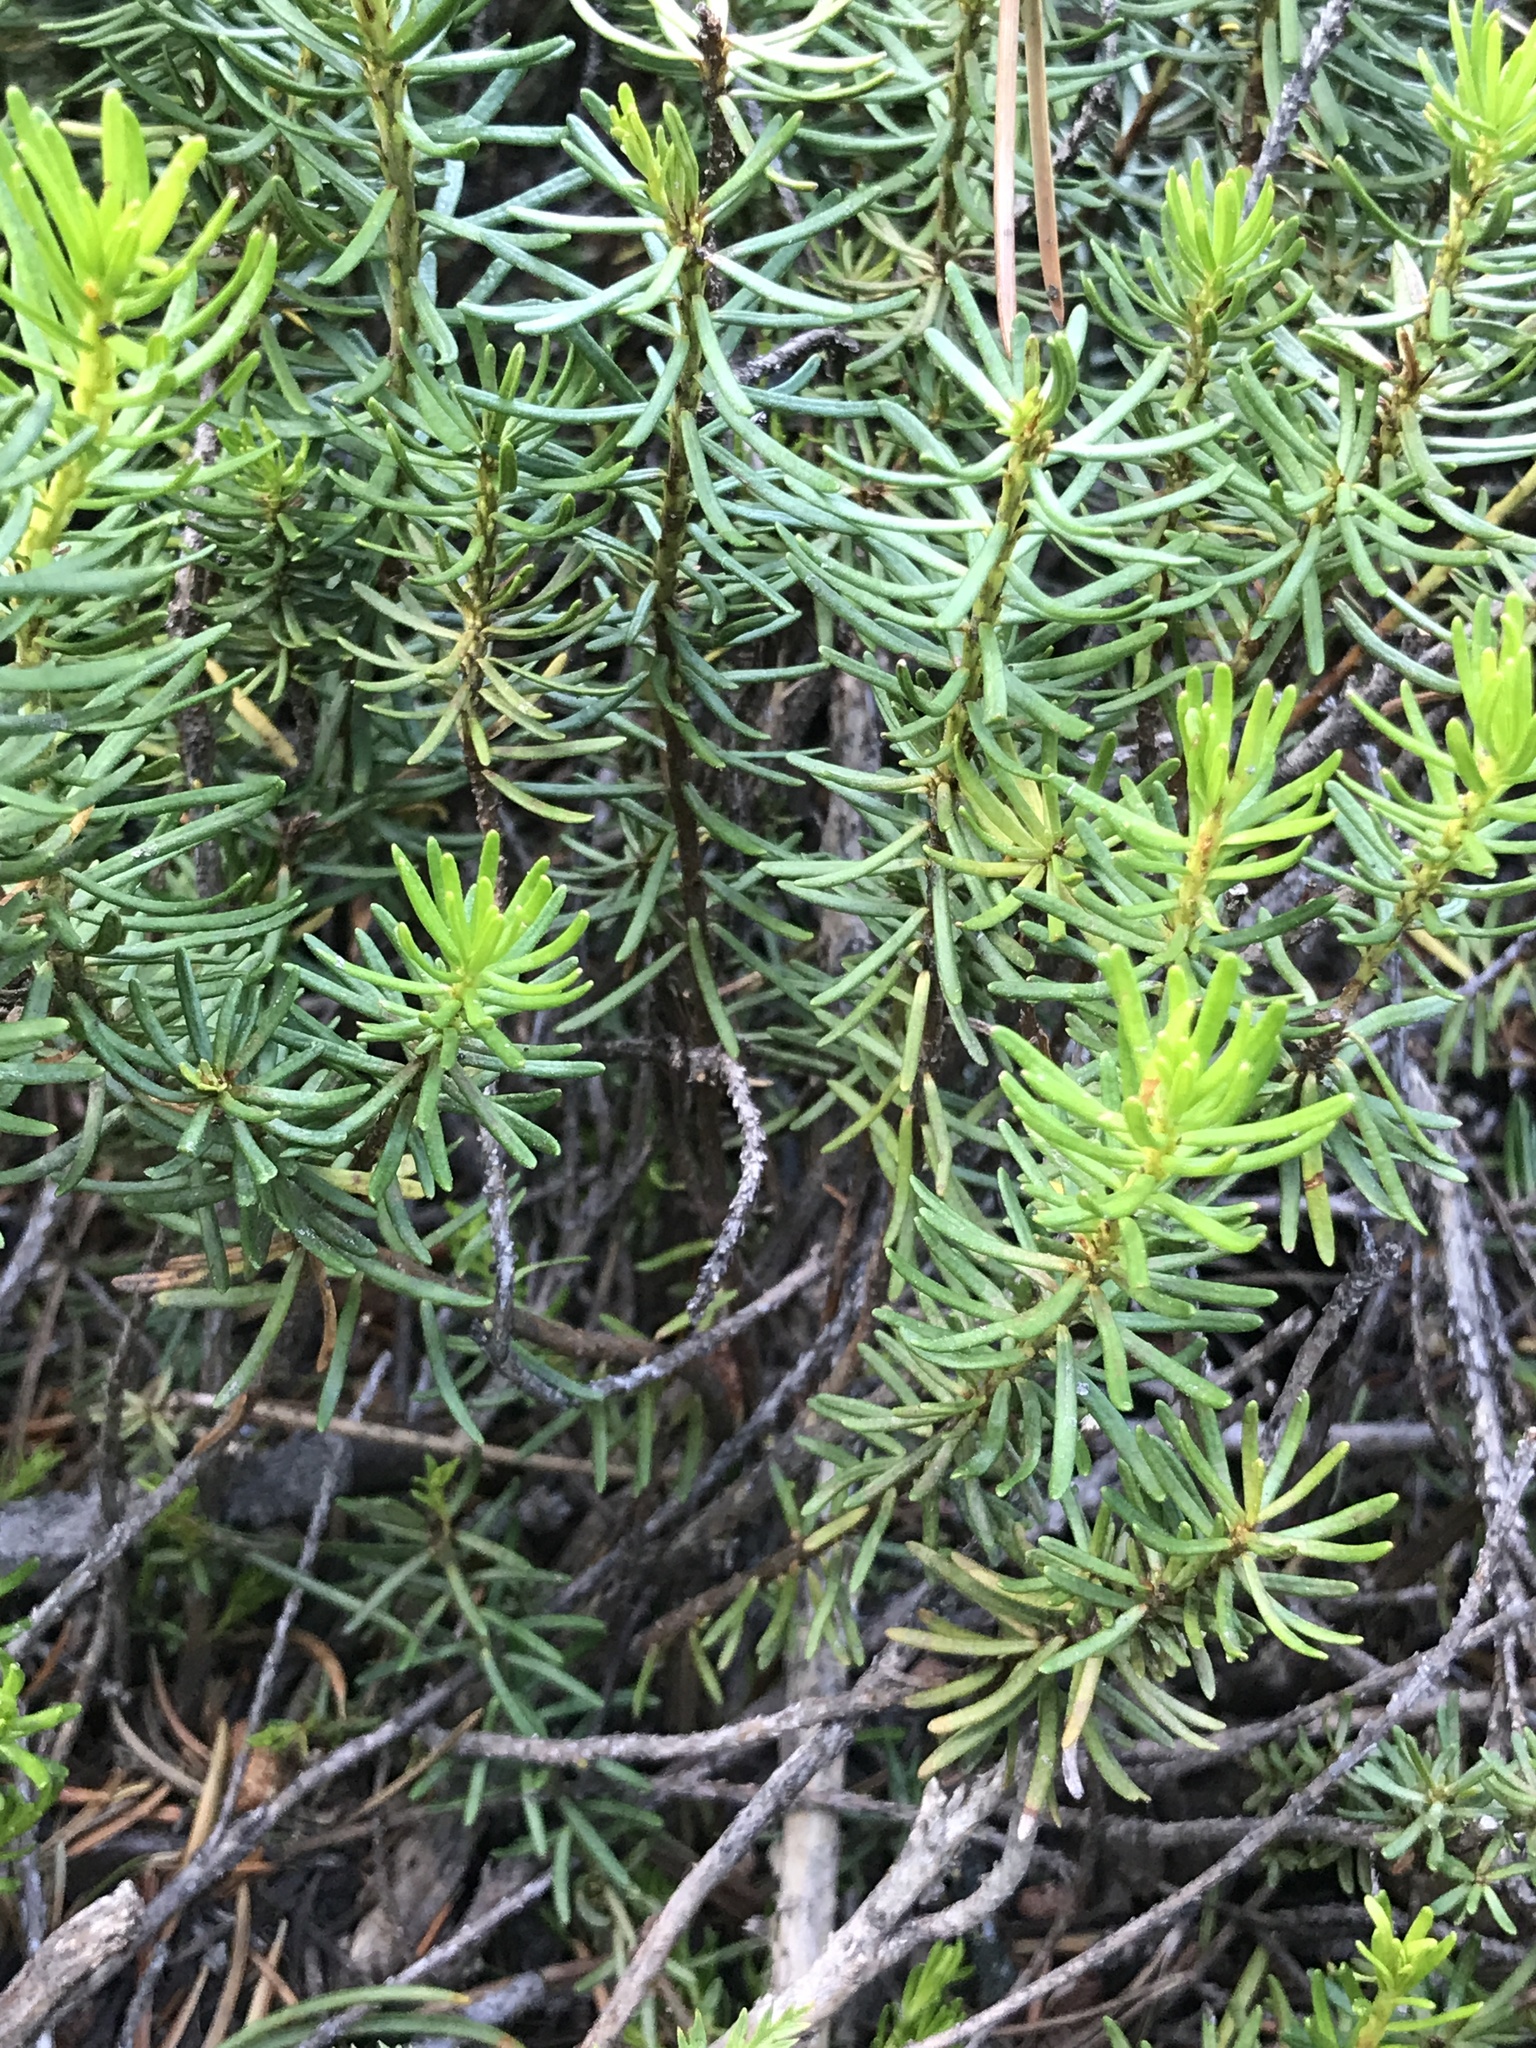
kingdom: Plantae
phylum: Tracheophyta
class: Magnoliopsida
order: Ericales
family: Ericaceae
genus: Phyllodoce
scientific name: Phyllodoce breweri
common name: Brewer's mountain-heather
